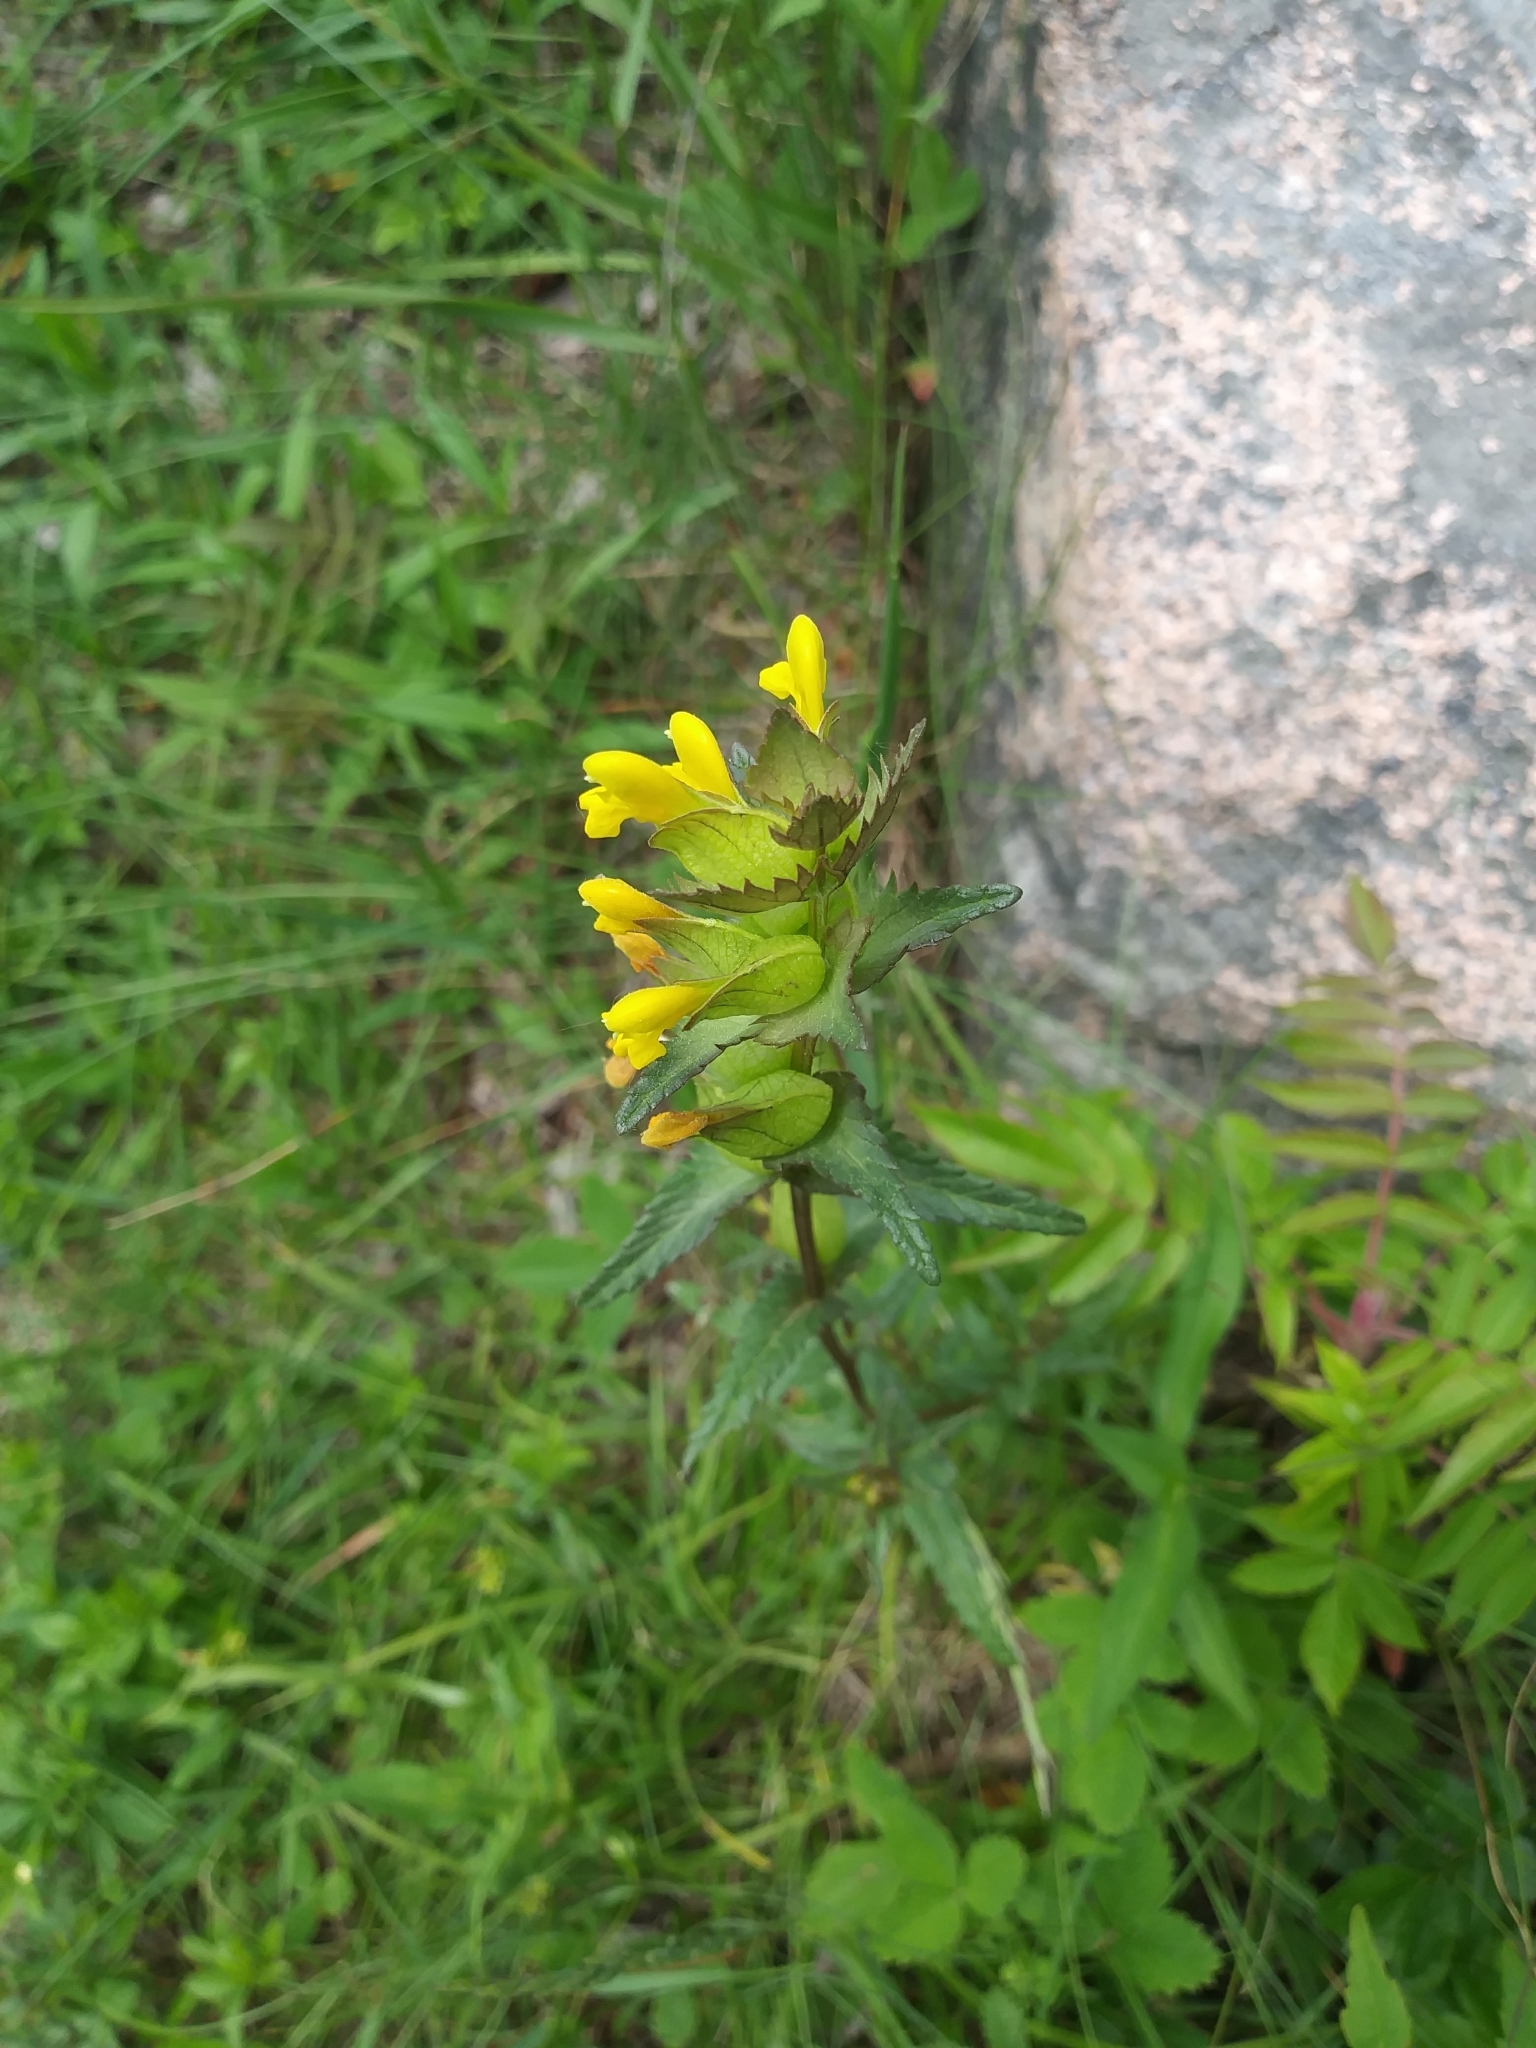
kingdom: Plantae
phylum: Tracheophyta
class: Magnoliopsida
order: Lamiales
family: Orobanchaceae
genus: Rhinanthus
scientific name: Rhinanthus minor
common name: Yellow-rattle
